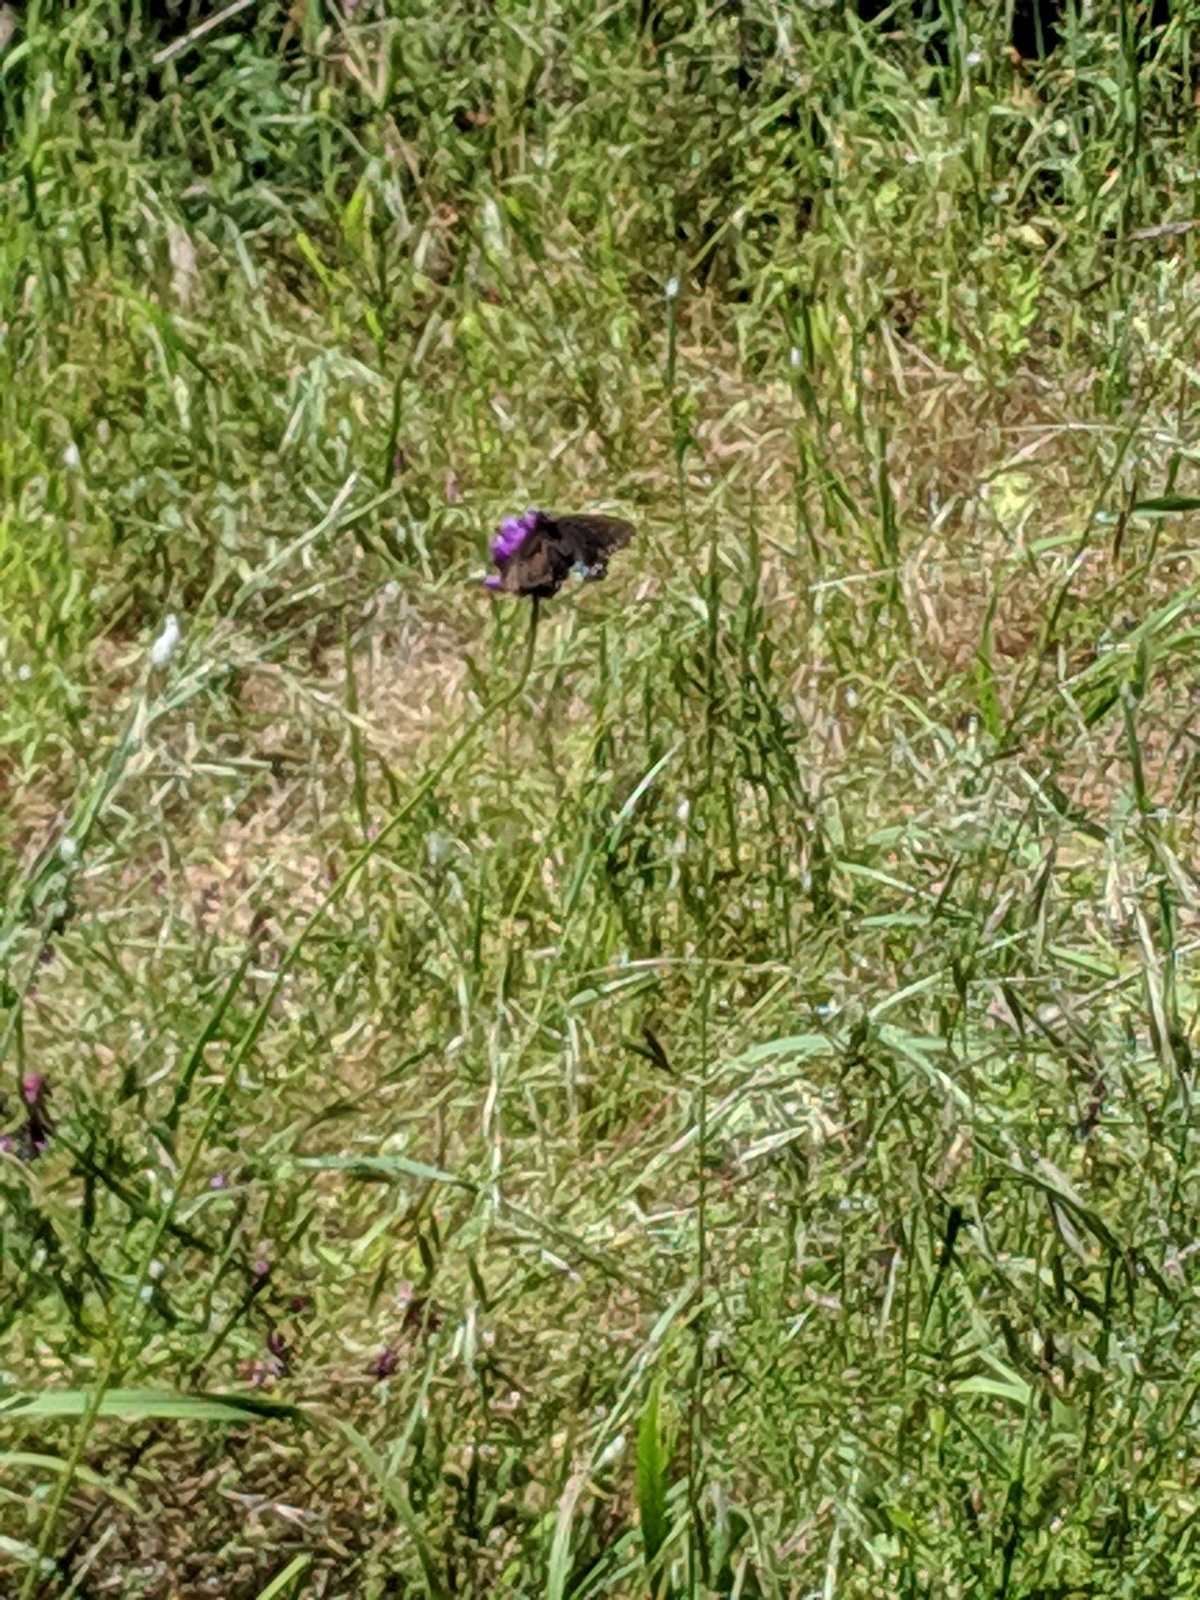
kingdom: Animalia
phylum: Arthropoda
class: Insecta
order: Lepidoptera
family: Papilionidae
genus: Battus
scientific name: Battus philenor
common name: Pipevine swallowtail
